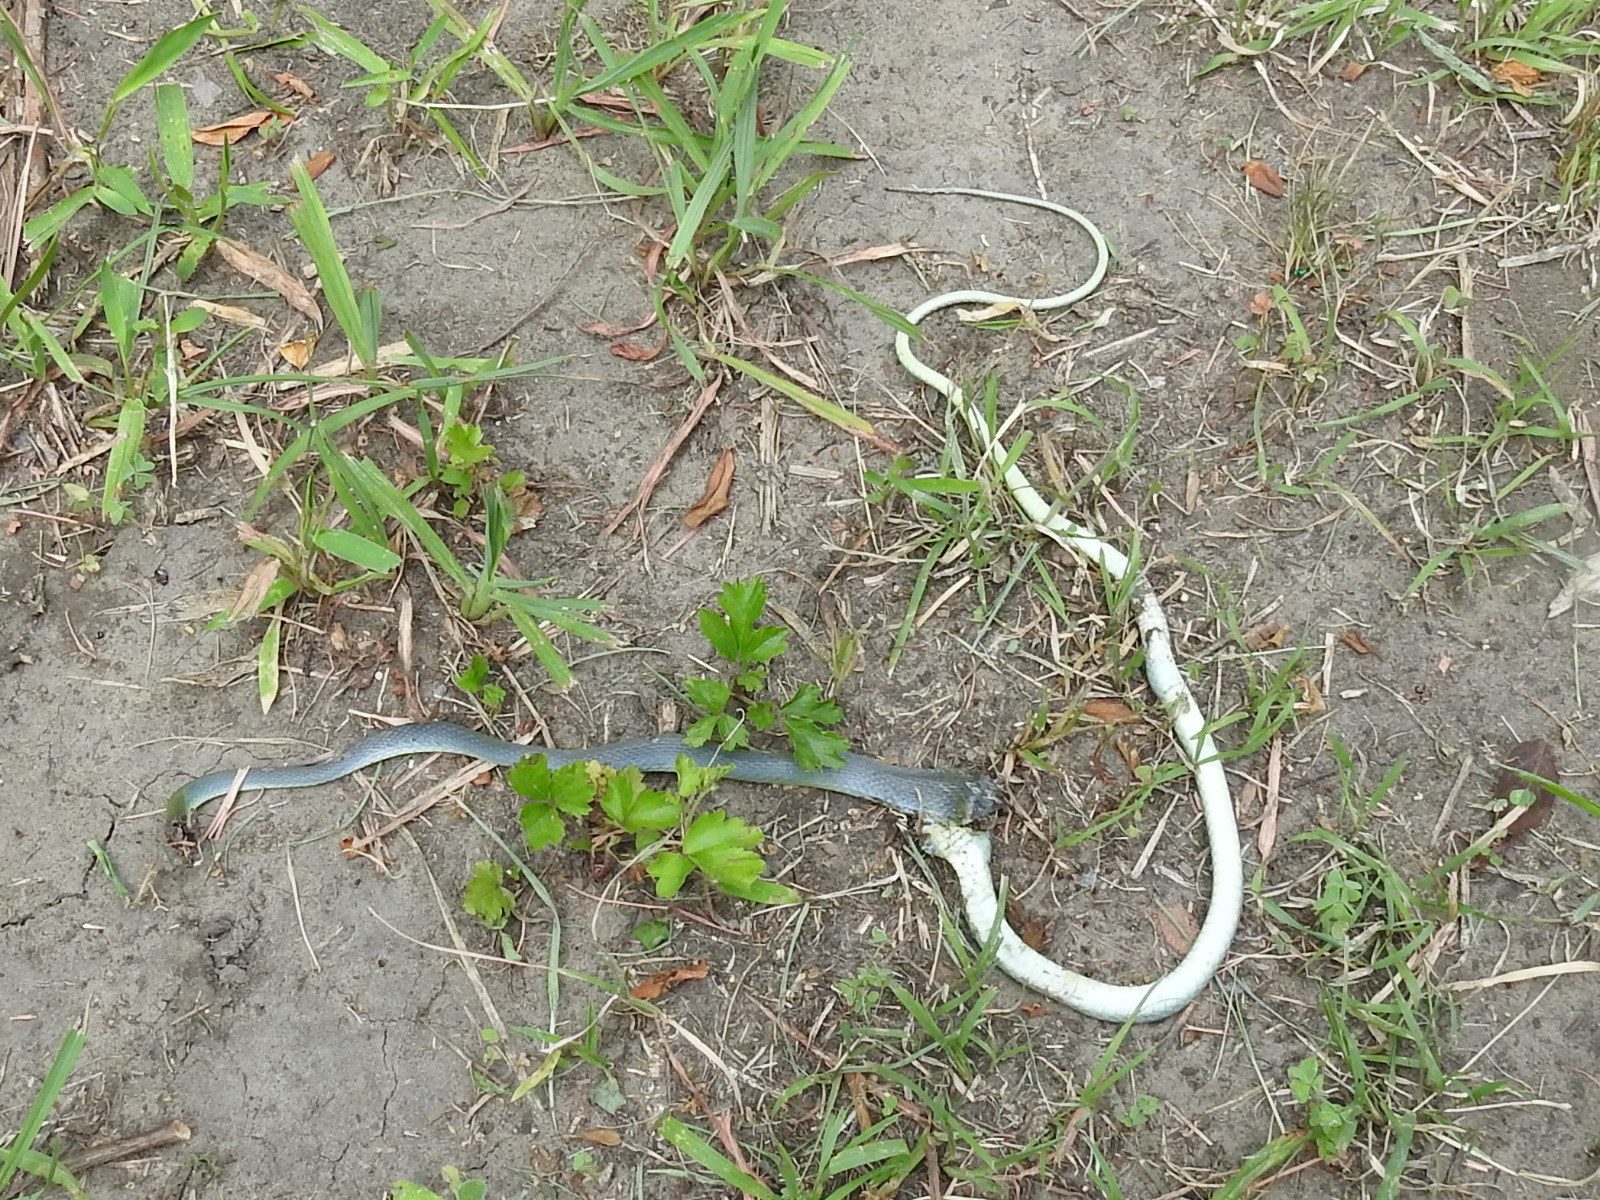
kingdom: Animalia
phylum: Chordata
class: Squamata
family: Colubridae
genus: Opheodrys
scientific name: Opheodrys aestivus
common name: Rough greensnake
